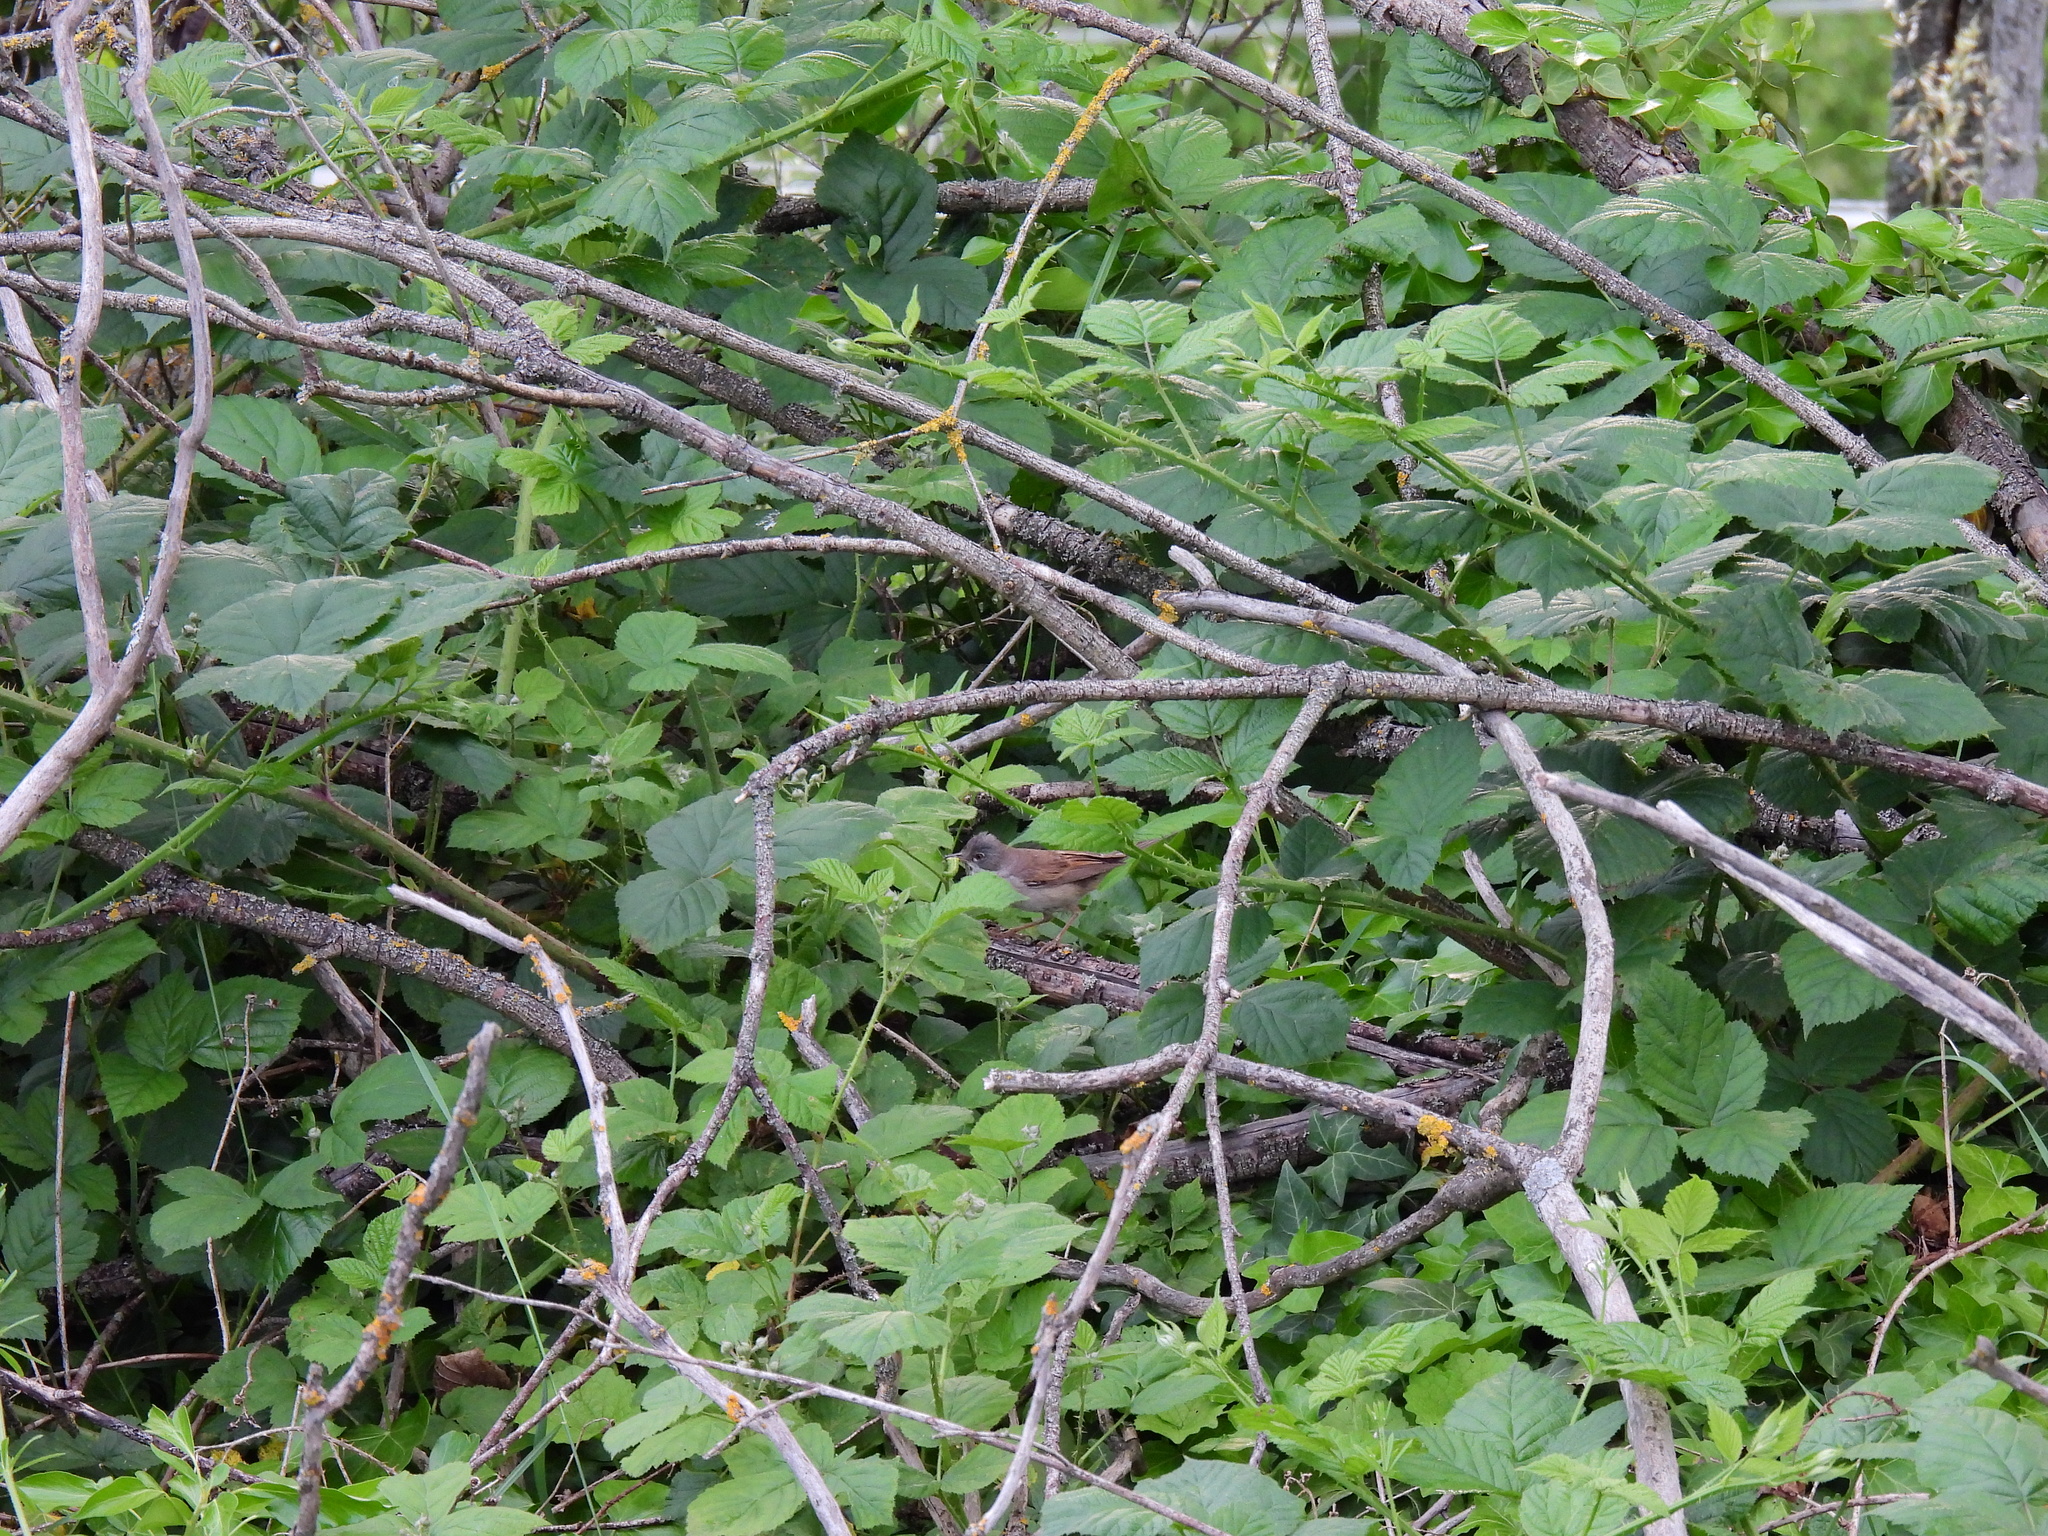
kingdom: Animalia
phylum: Chordata
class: Aves
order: Passeriformes
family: Sylviidae
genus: Sylvia
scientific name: Sylvia communis
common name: Common whitethroat
